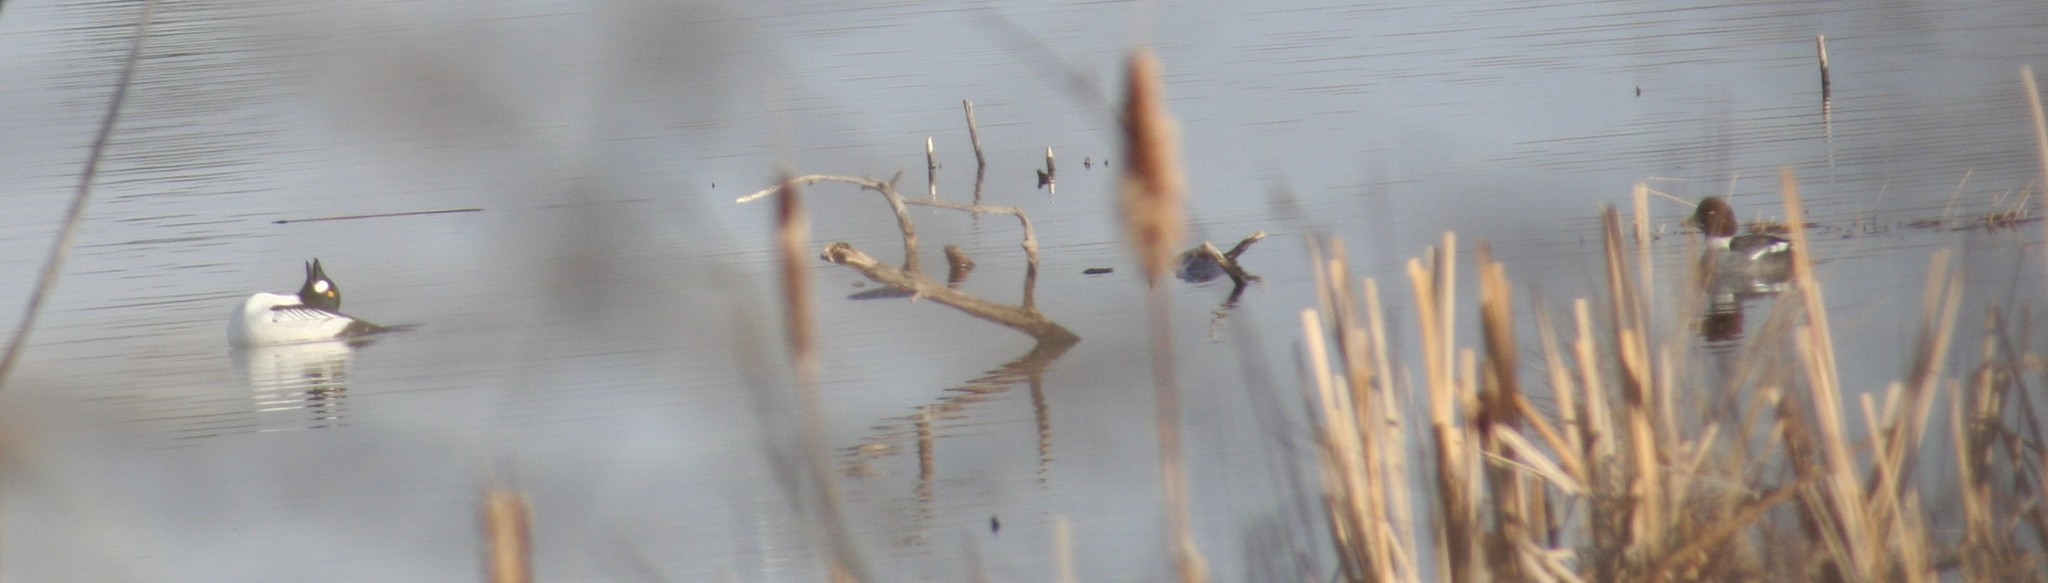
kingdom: Animalia
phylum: Chordata
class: Aves
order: Anseriformes
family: Anatidae
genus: Bucephala
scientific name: Bucephala clangula
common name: Common goldeneye
